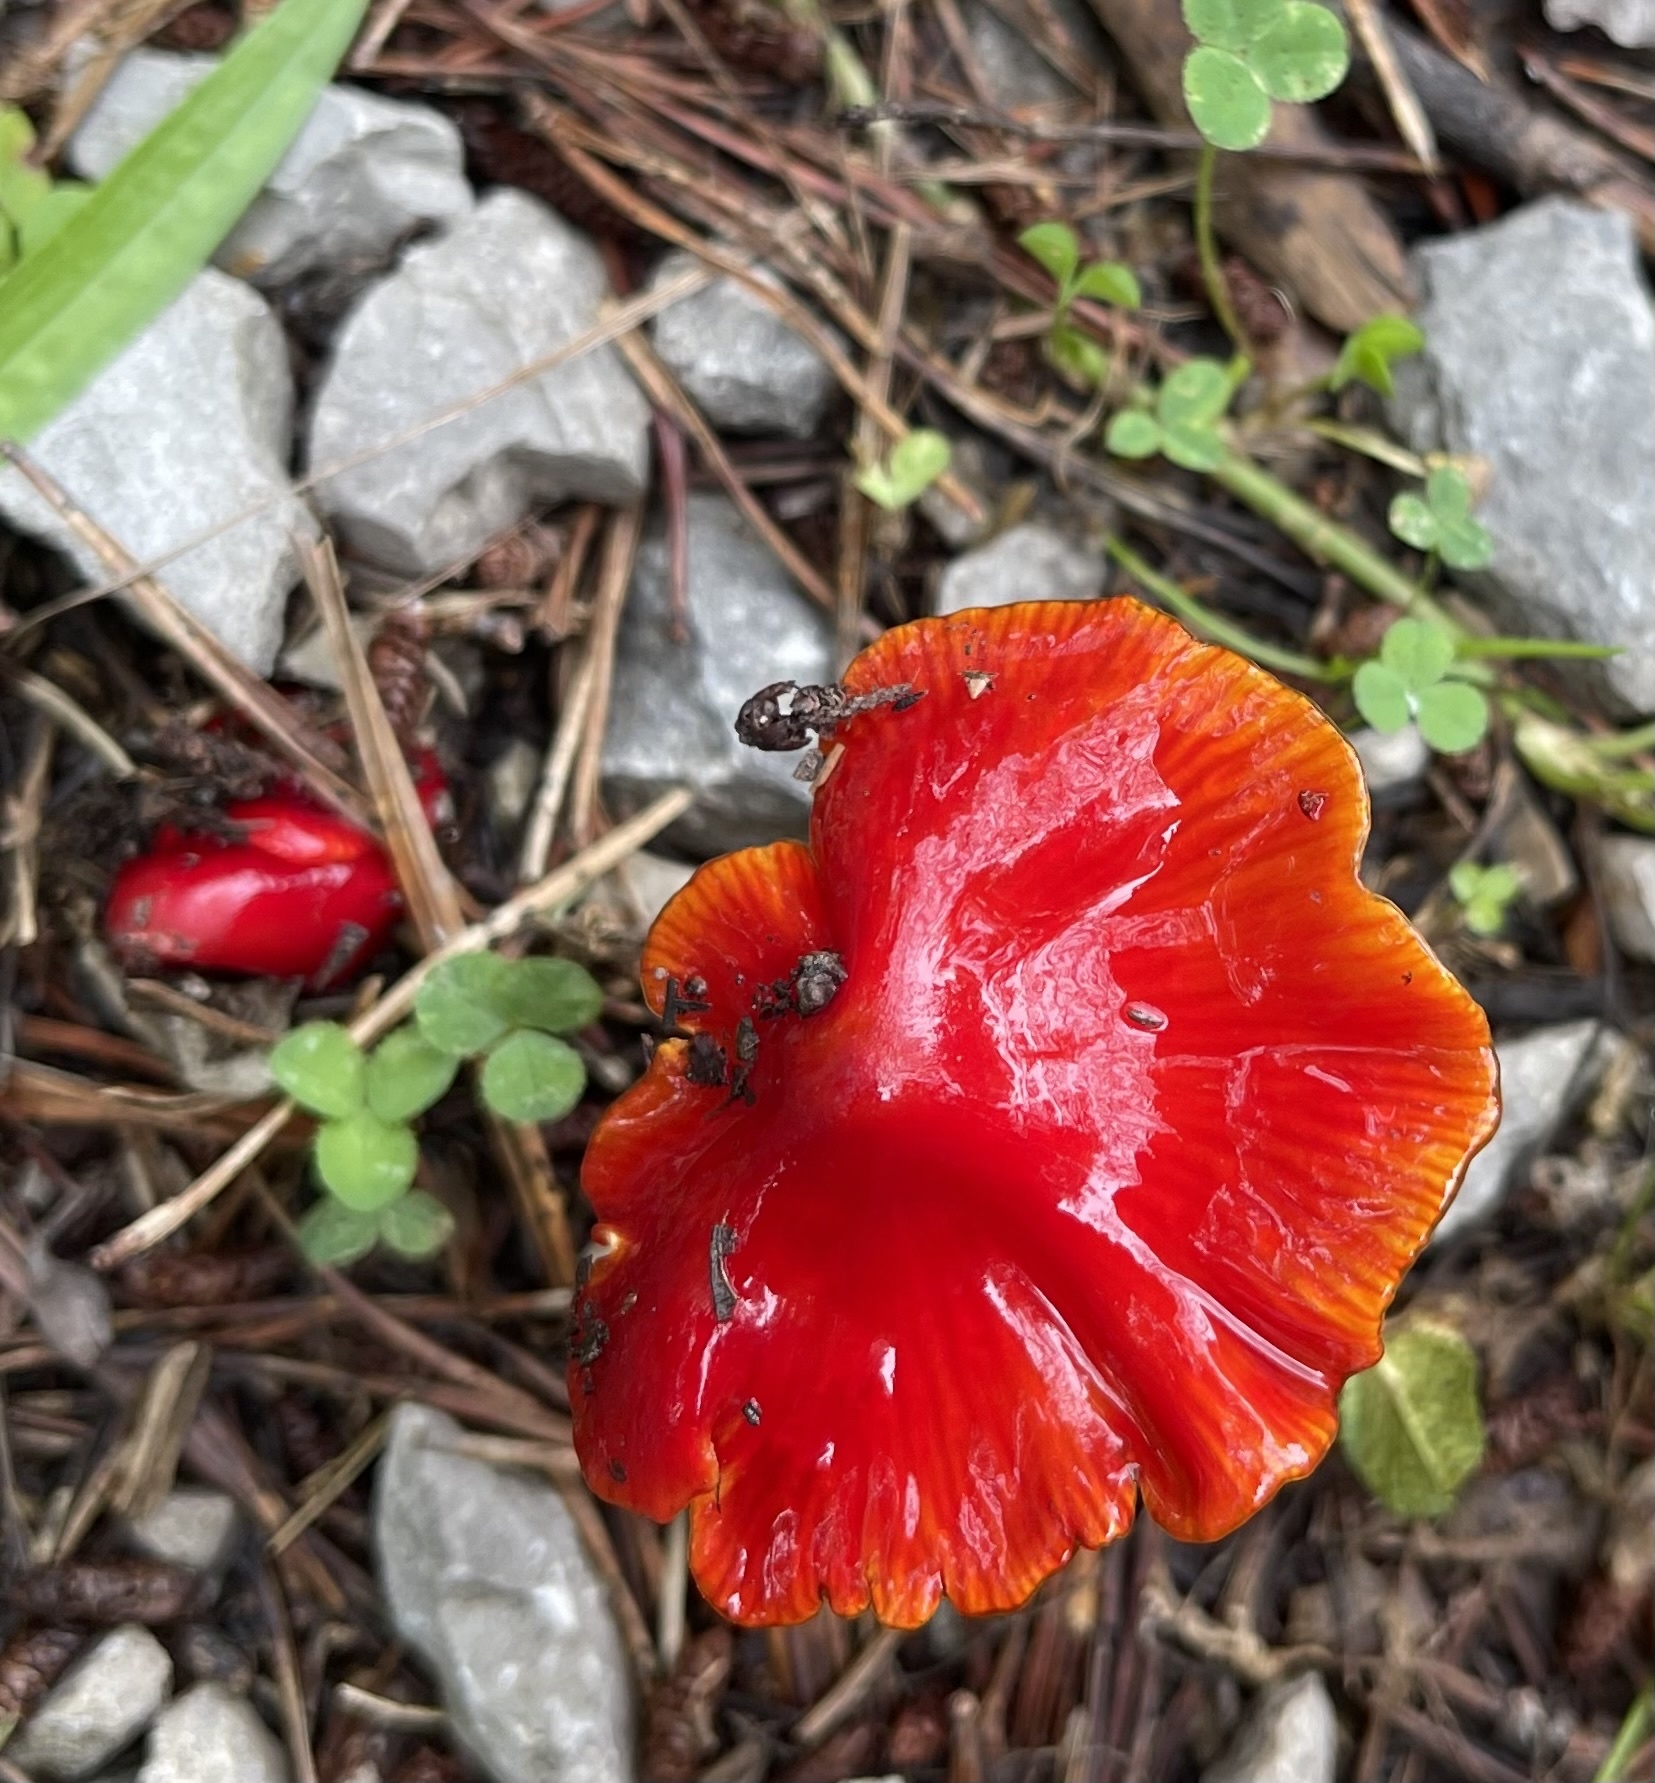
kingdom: Fungi
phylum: Basidiomycota
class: Agaricomycetes
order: Agaricales
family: Hygrophoraceae
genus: Hygrocybe
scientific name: Hygrocybe cuspidata
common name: Candy apple waxy cap
